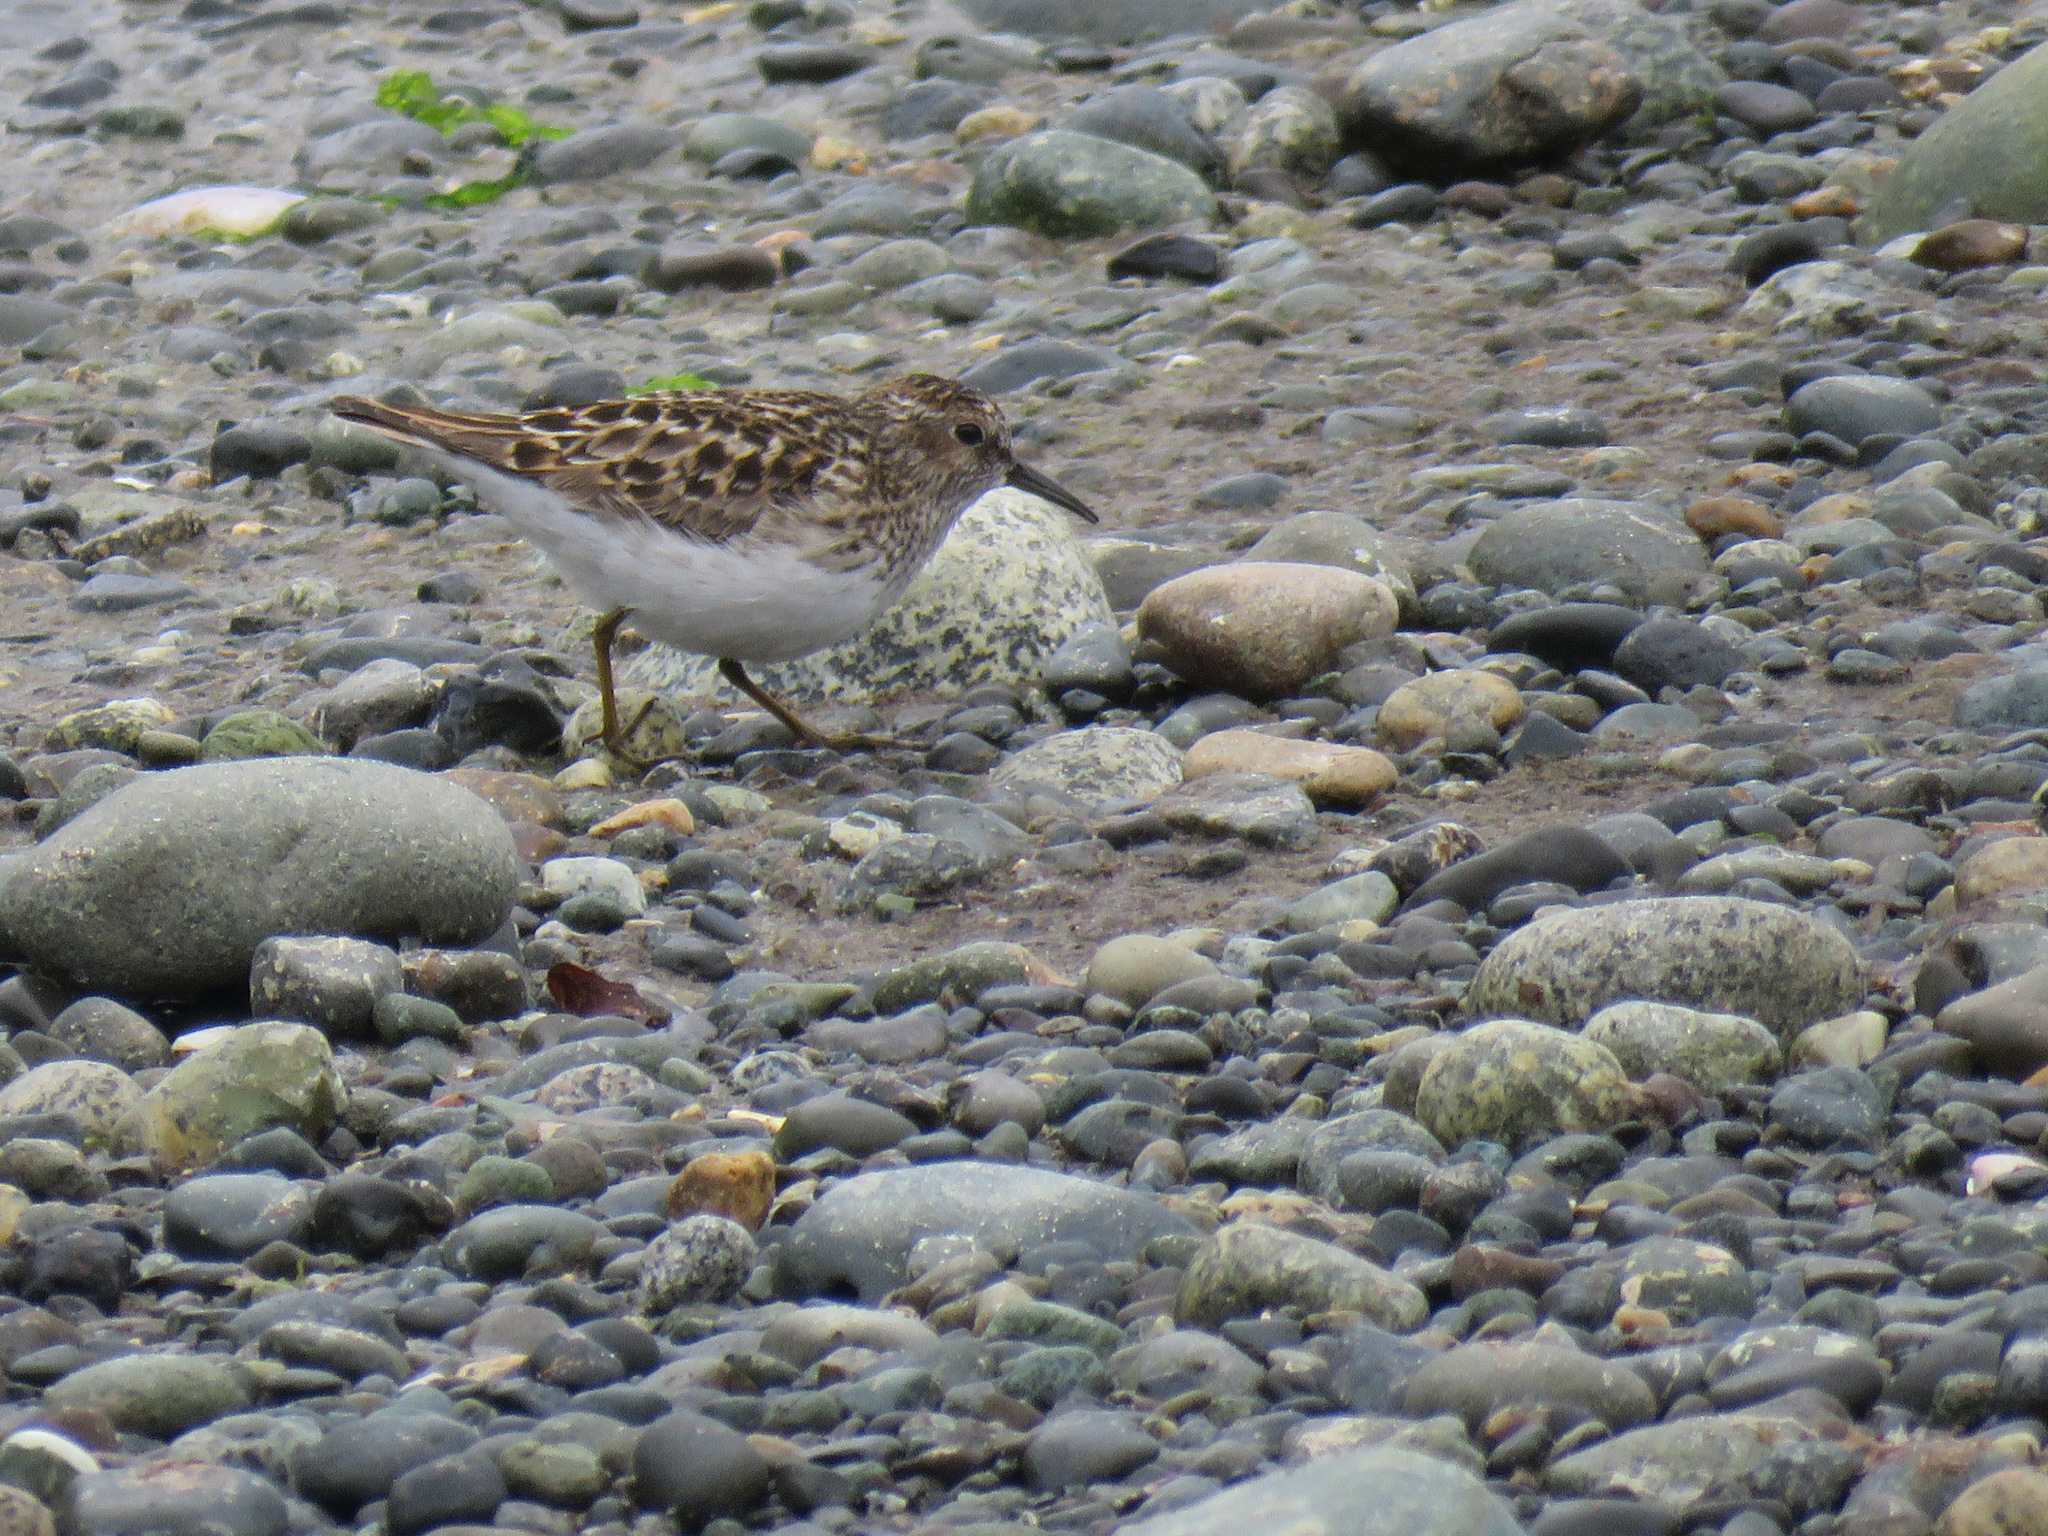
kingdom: Animalia
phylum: Chordata
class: Aves
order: Charadriiformes
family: Scolopacidae
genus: Calidris
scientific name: Calidris minutilla
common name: Least sandpiper
